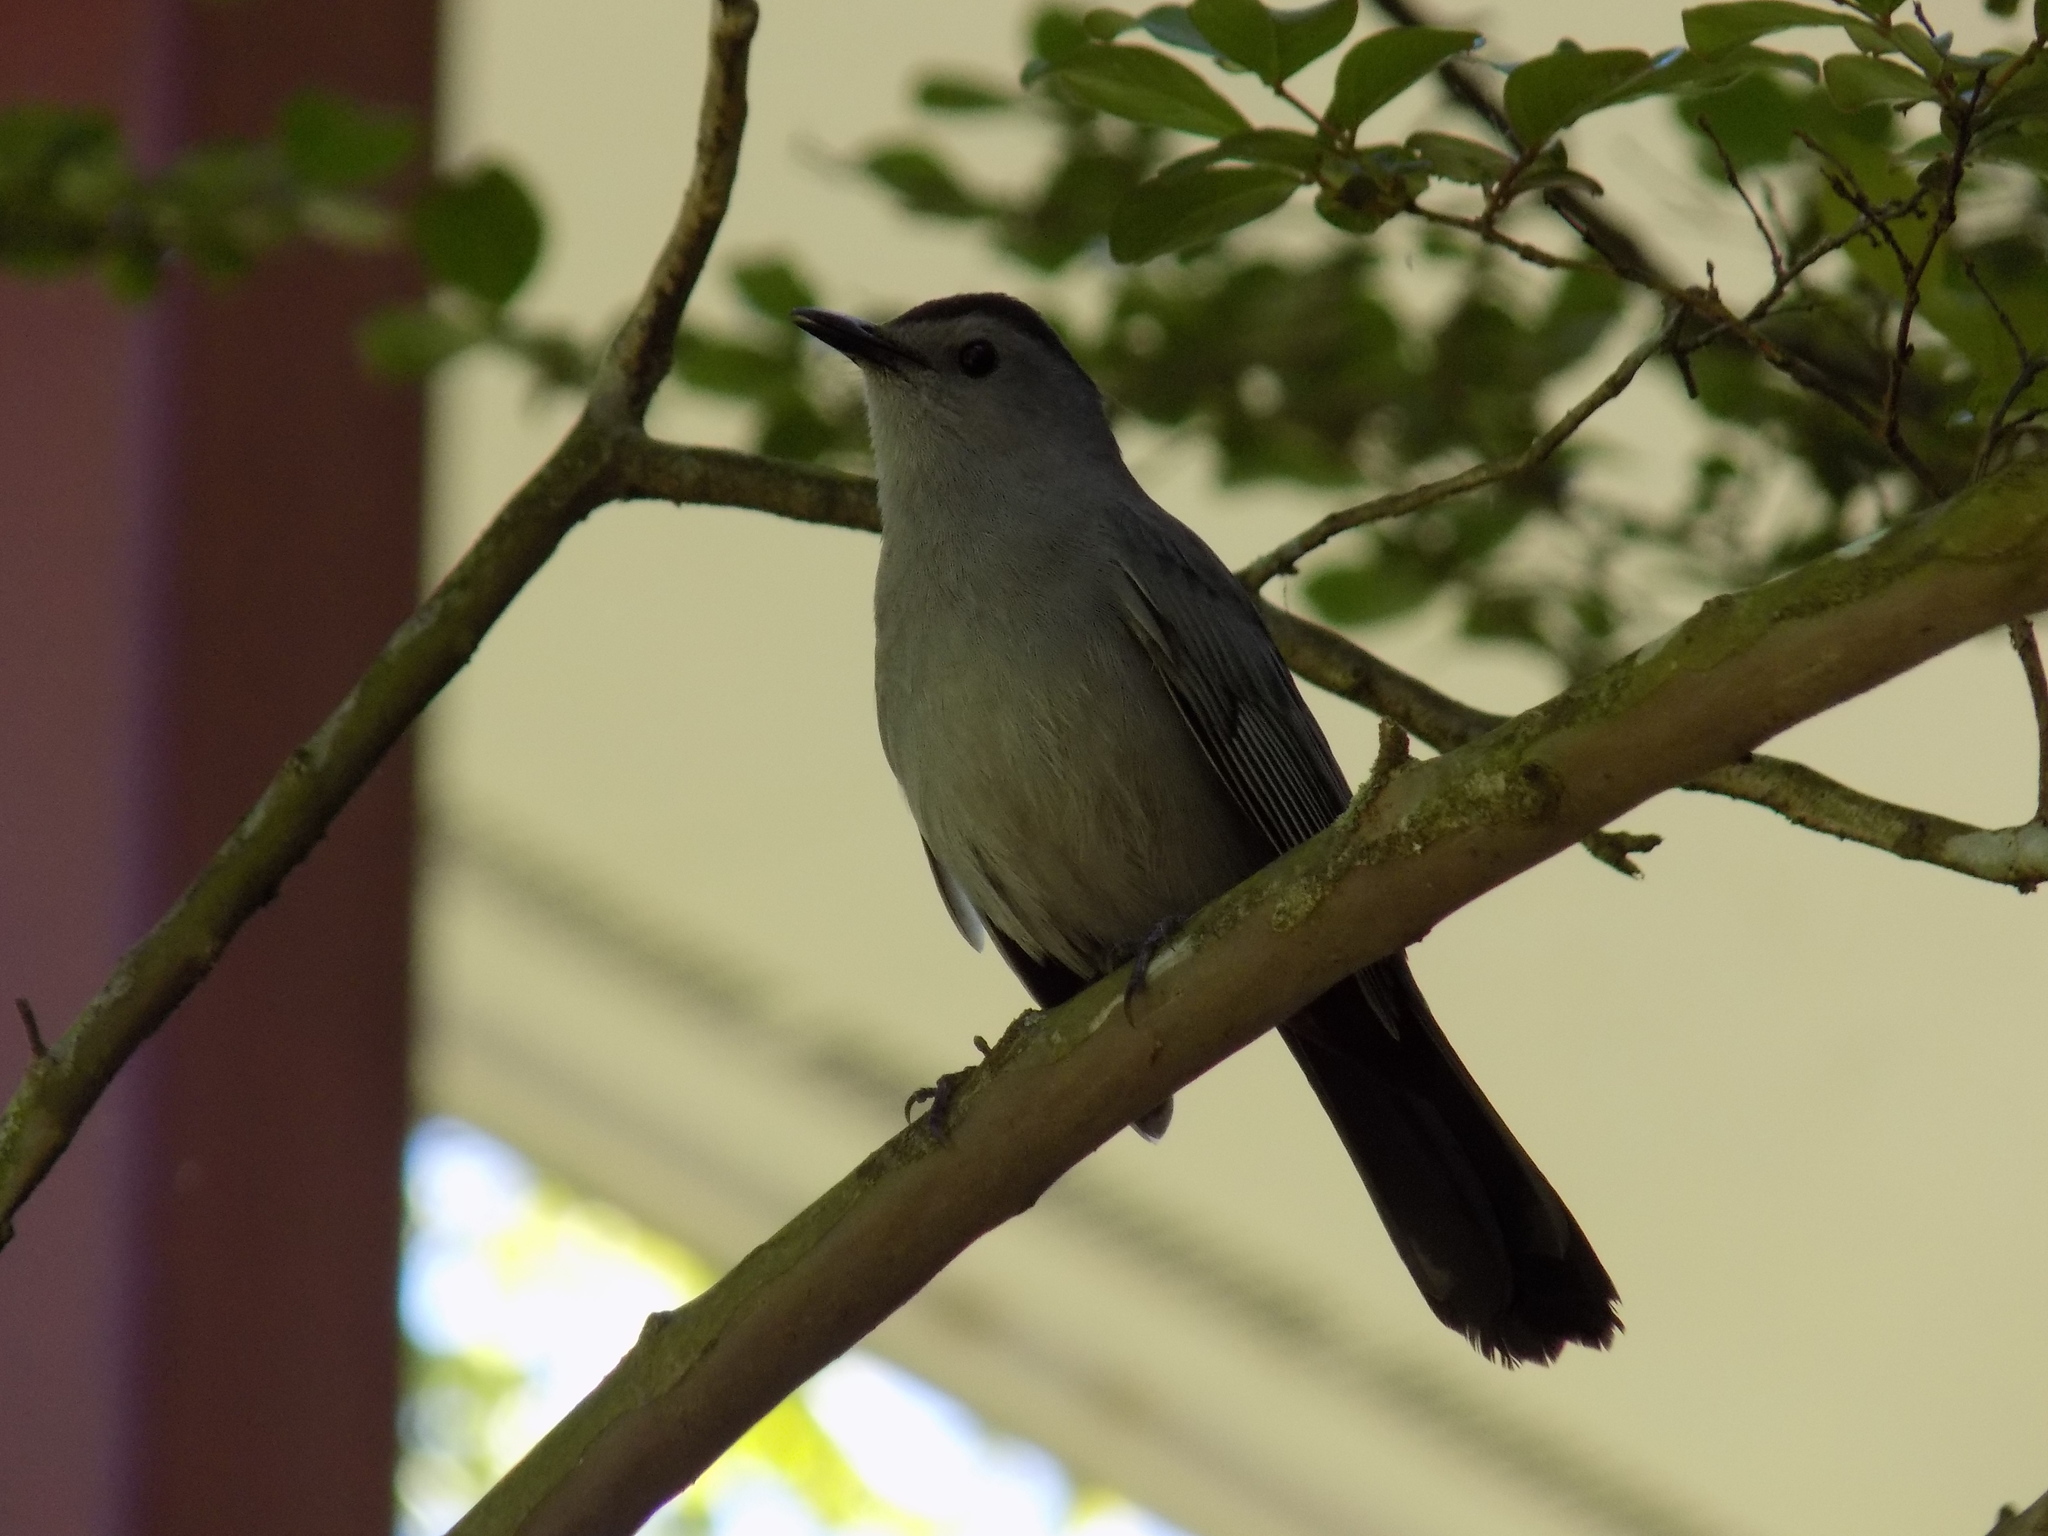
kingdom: Animalia
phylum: Chordata
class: Aves
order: Passeriformes
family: Mimidae
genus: Dumetella
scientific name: Dumetella carolinensis
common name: Gray catbird
